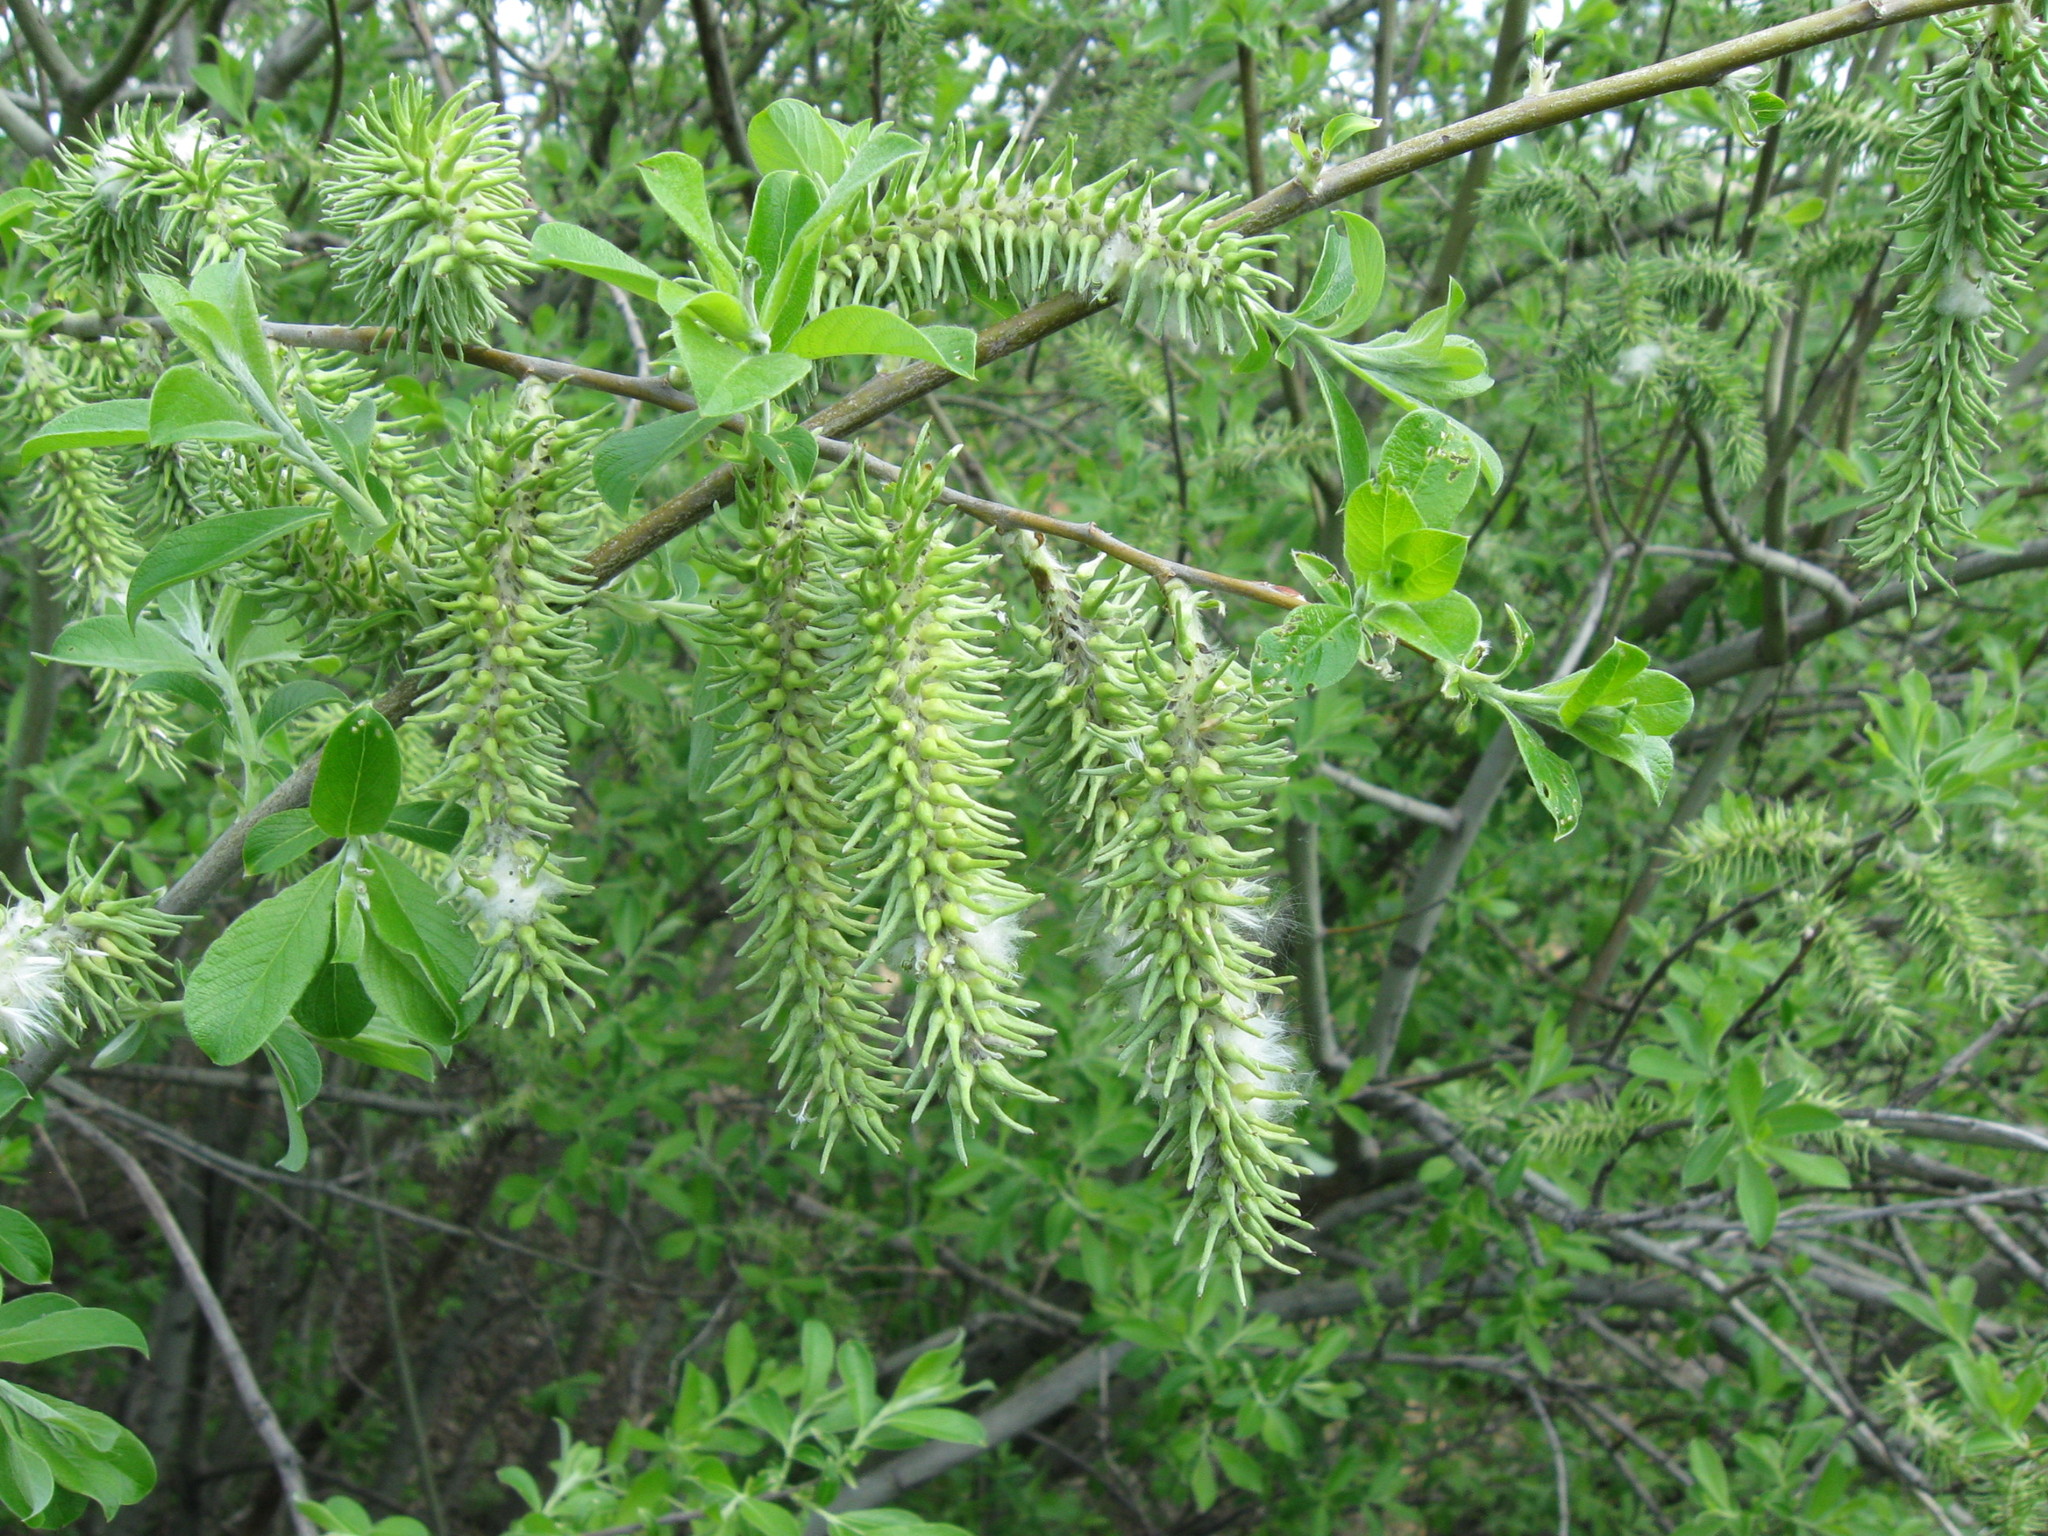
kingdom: Plantae
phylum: Tracheophyta
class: Magnoliopsida
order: Malpighiales
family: Salicaceae
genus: Salix
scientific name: Salix cinerea
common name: Common sallow
